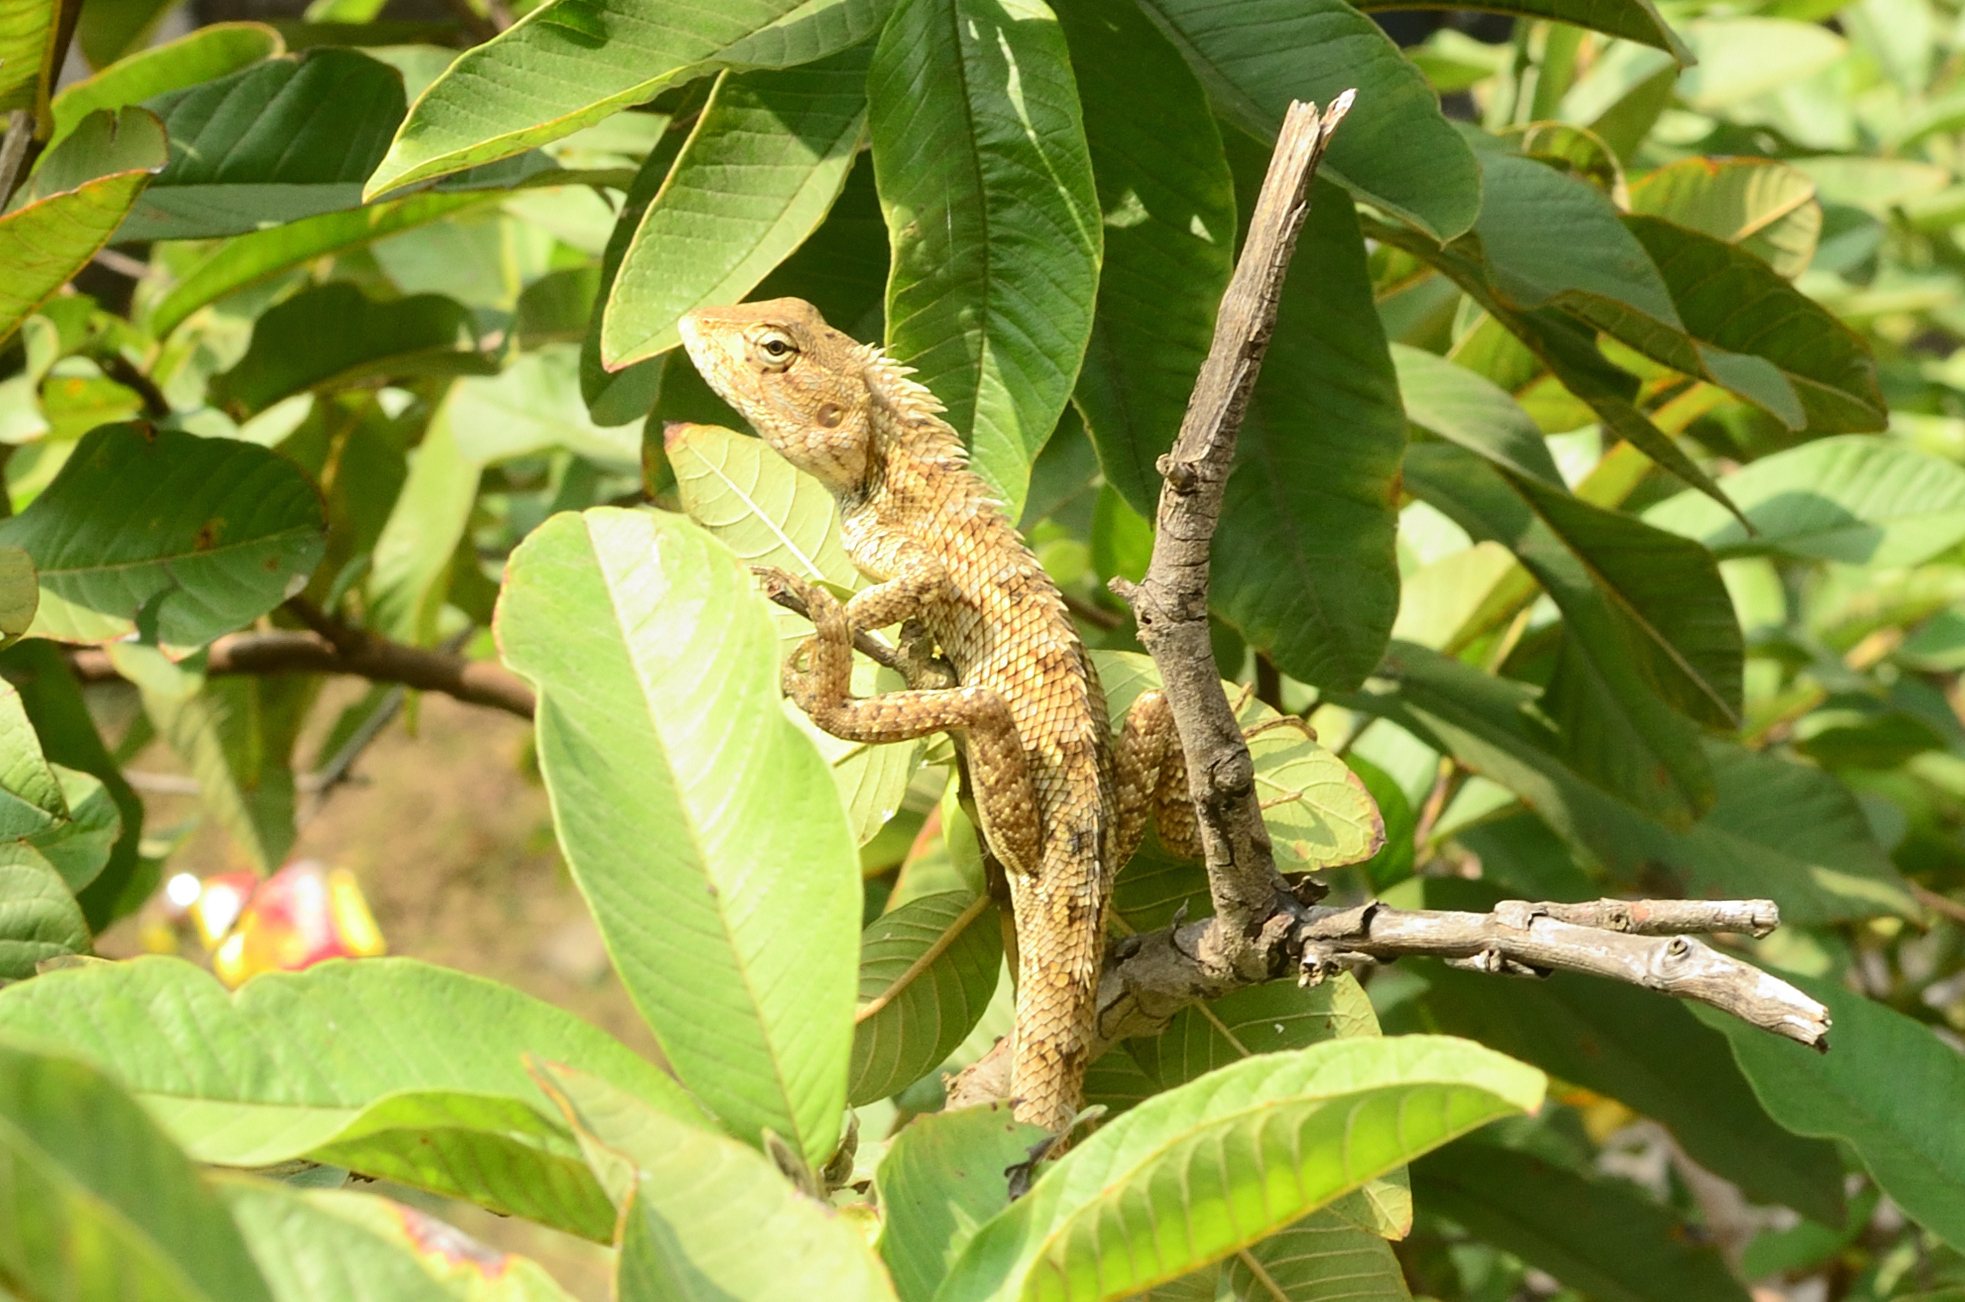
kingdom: Animalia
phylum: Chordata
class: Squamata
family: Agamidae
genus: Calotes
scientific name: Calotes versicolor
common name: Oriental garden lizard
